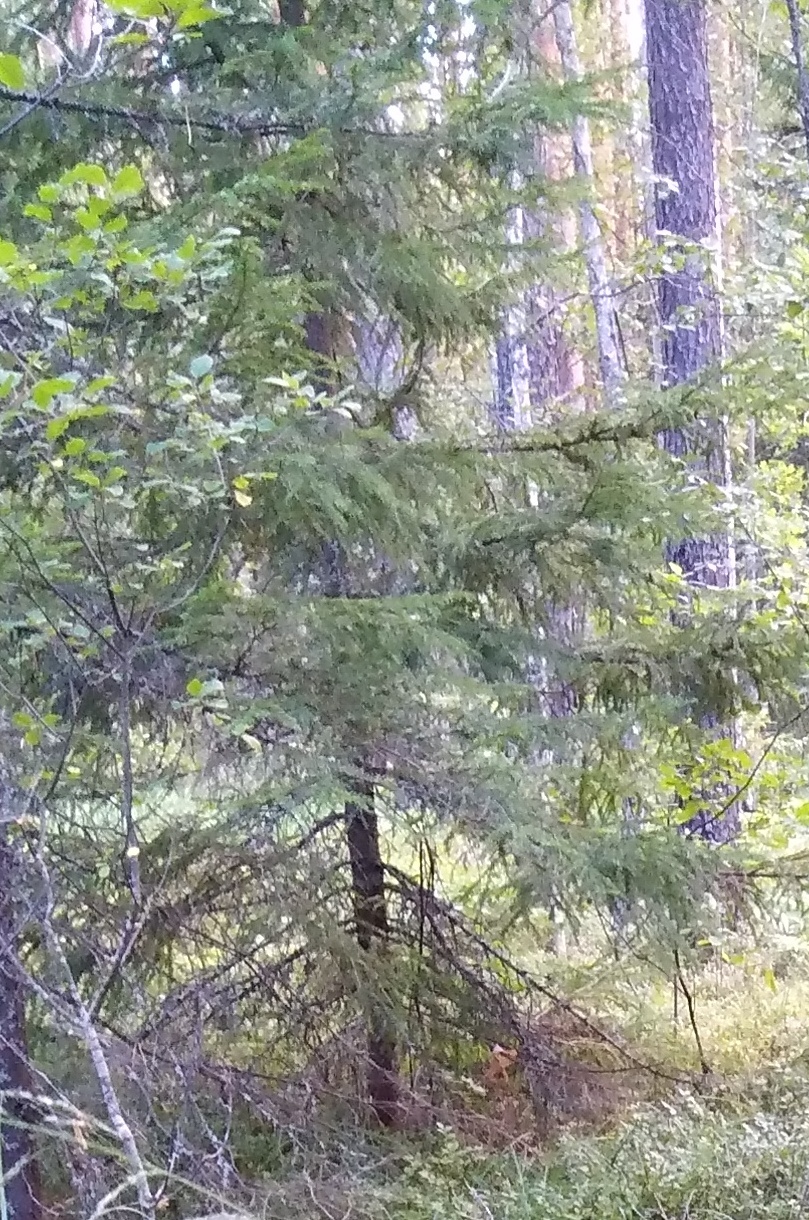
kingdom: Plantae
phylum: Tracheophyta
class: Pinopsida
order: Pinales
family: Pinaceae
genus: Picea
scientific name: Picea abies
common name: Norway spruce
